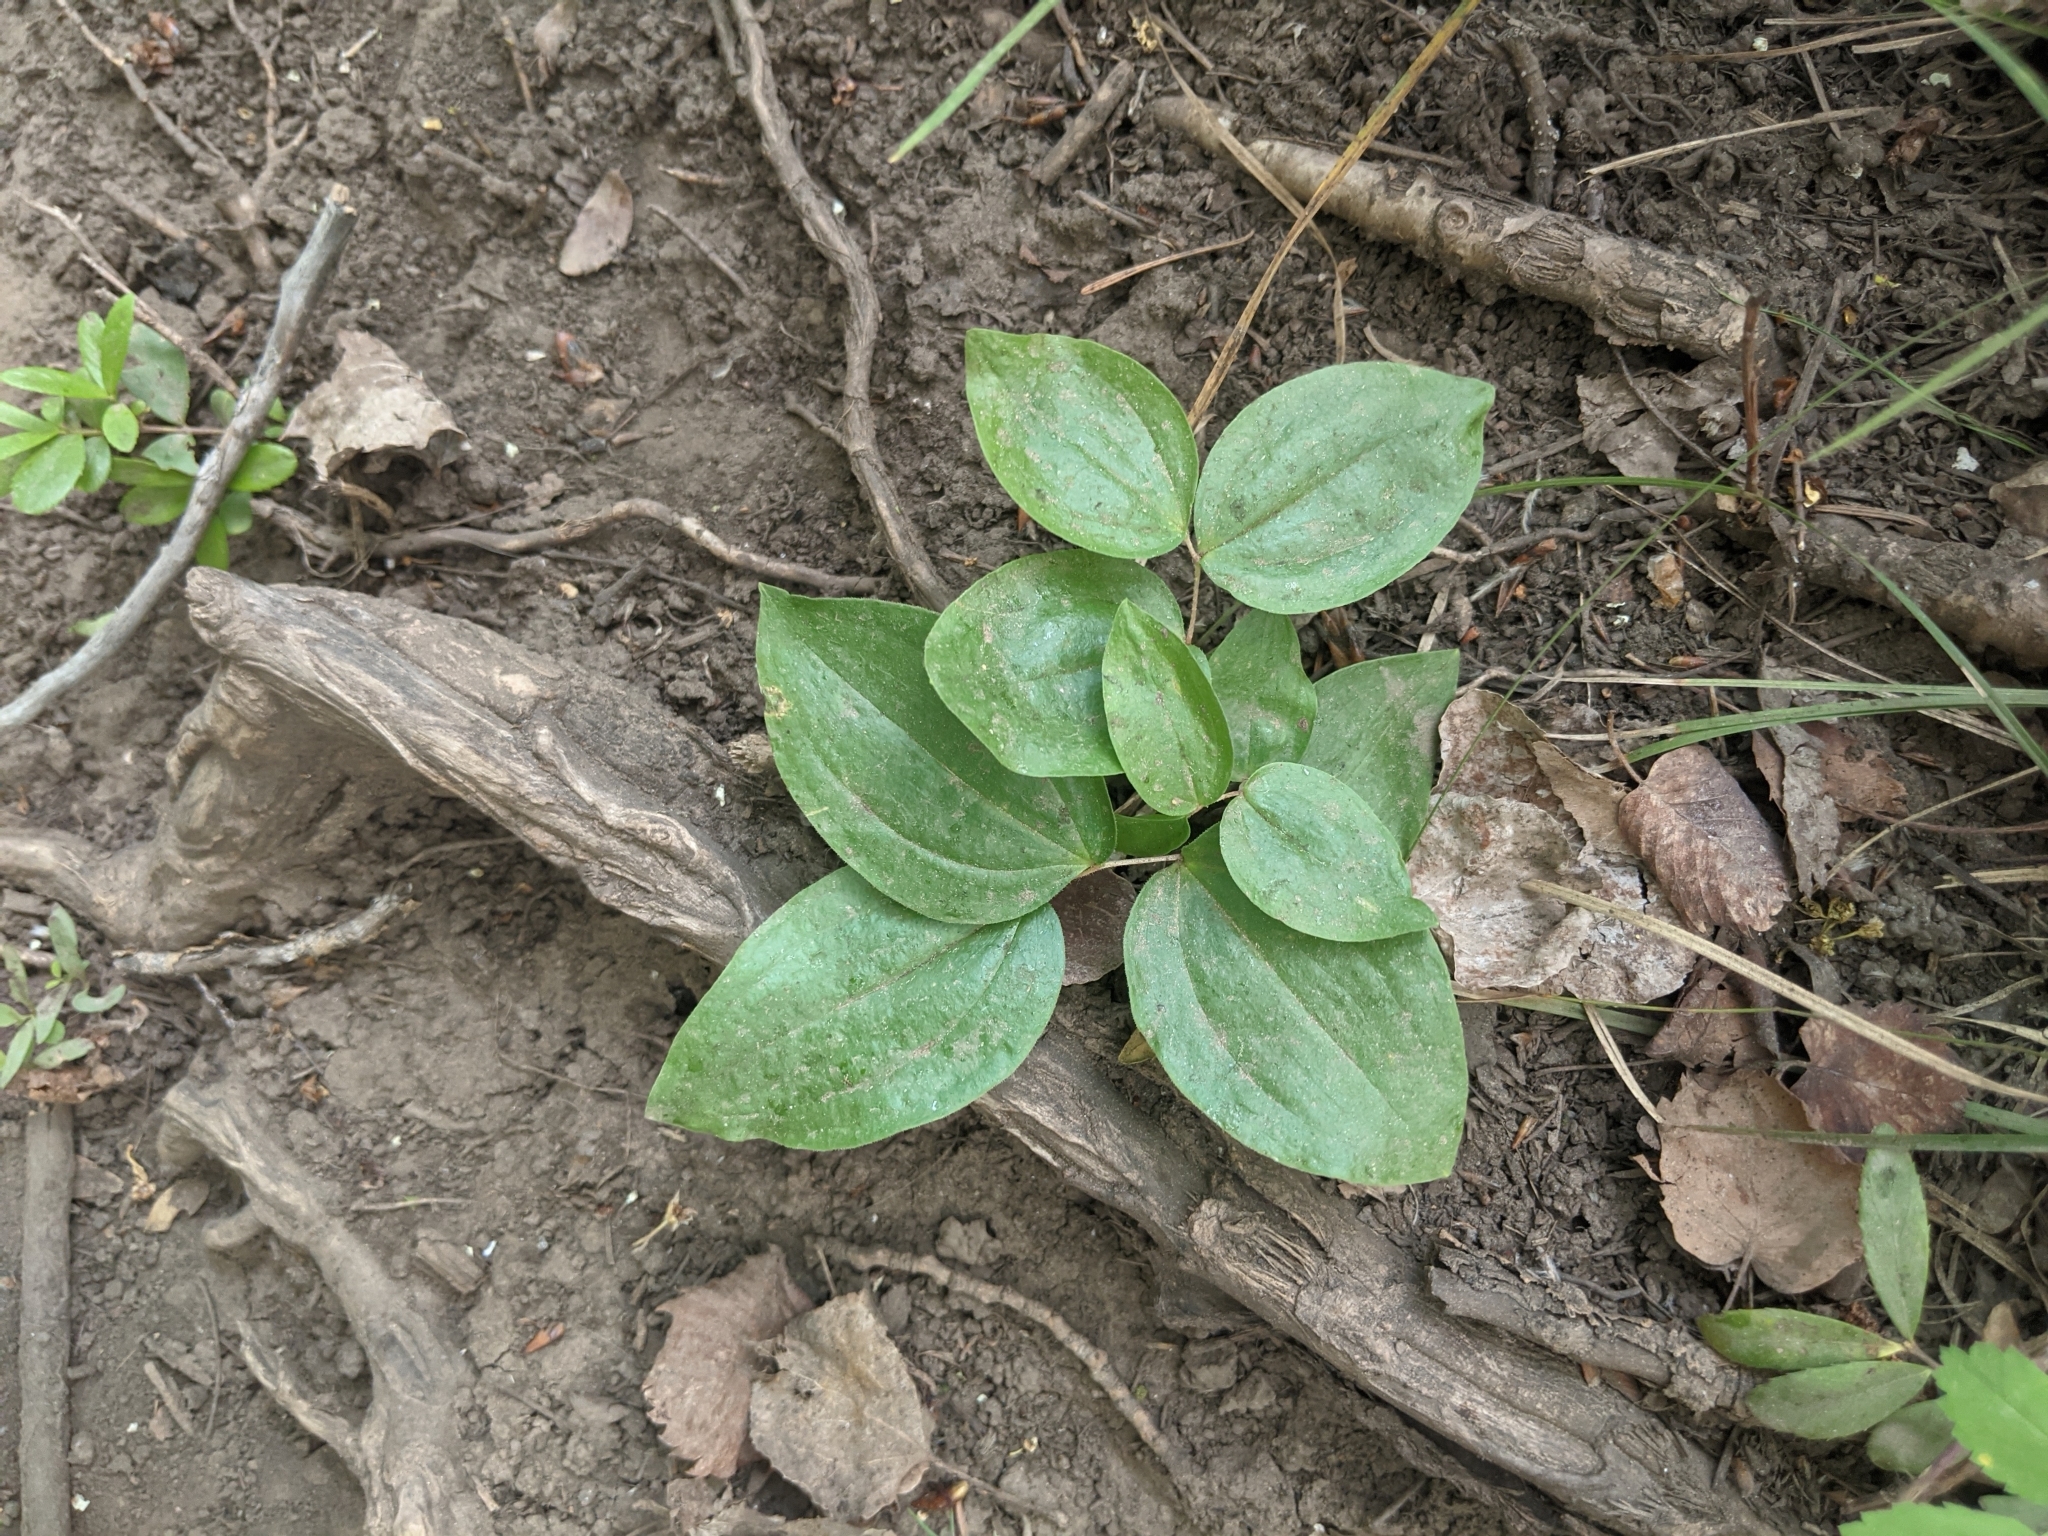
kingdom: Plantae
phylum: Tracheophyta
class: Liliopsida
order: Liliales
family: Liliaceae
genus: Prosartes
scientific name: Prosartes trachycarpa
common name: Rough-fruit fairy-bells
